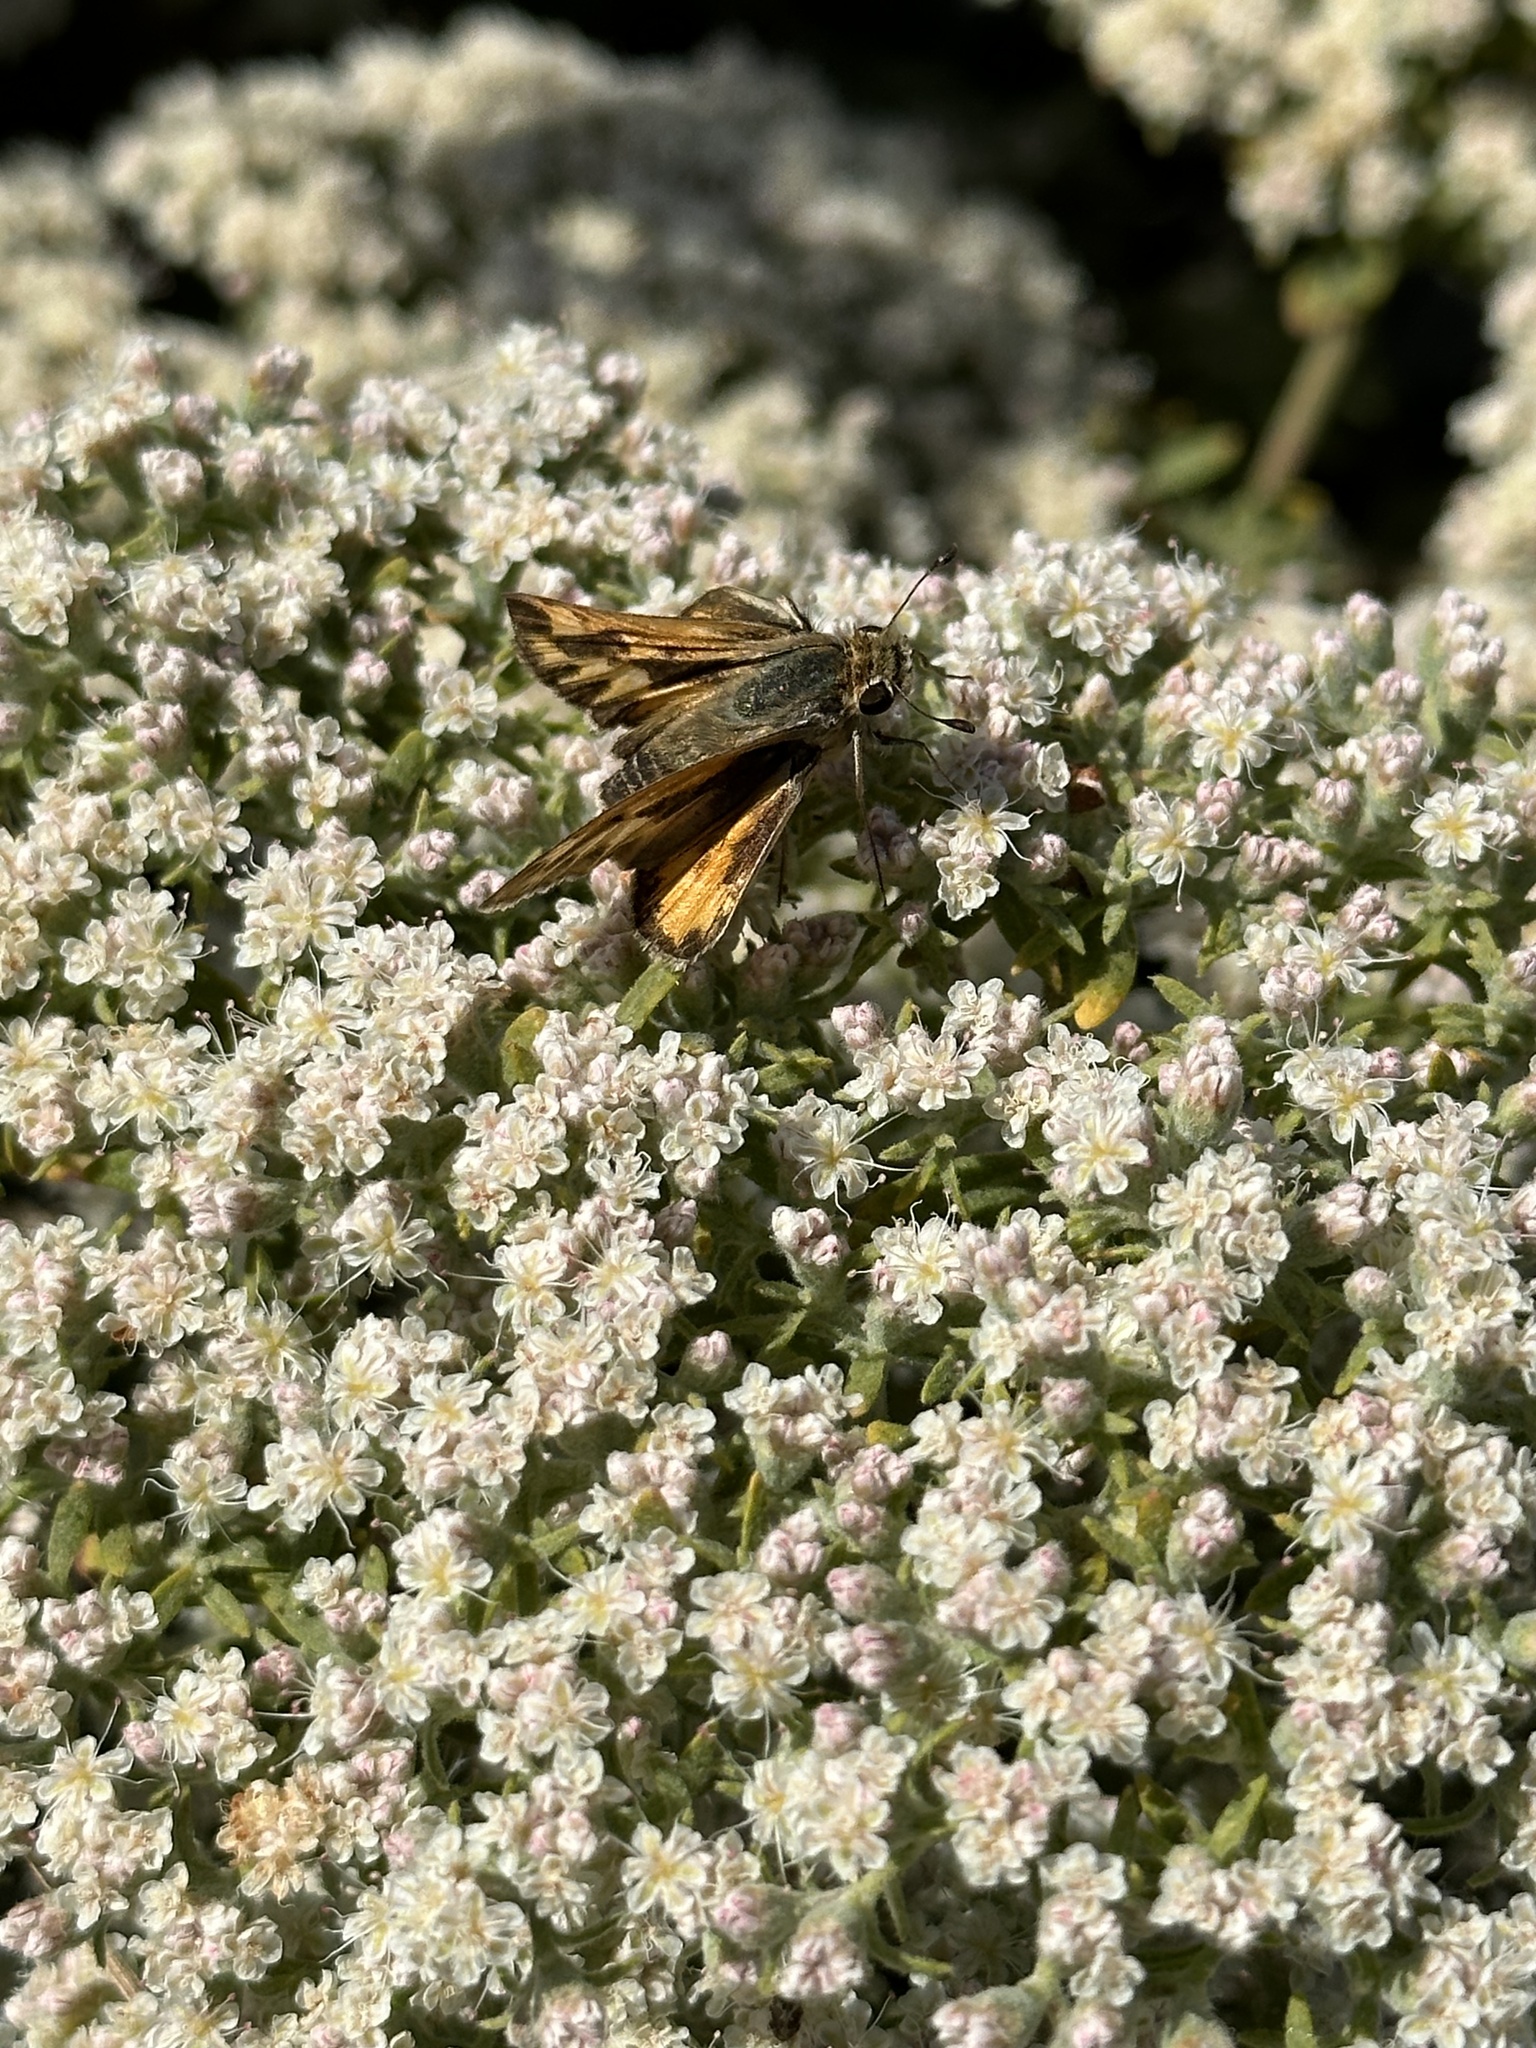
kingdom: Animalia
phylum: Arthropoda
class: Insecta
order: Lepidoptera
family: Hesperiidae
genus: Hylephila
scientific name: Hylephila phyleus
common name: Fiery skipper
